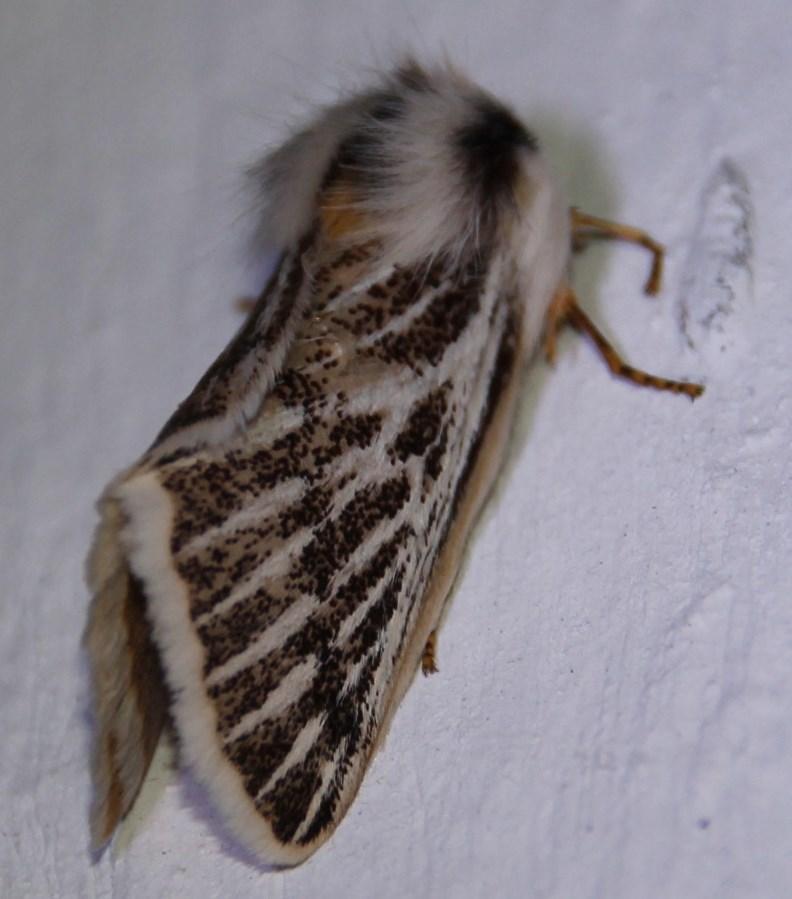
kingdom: Animalia
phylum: Arthropoda
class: Insecta
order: Lepidoptera
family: Eupterotidae
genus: Rhabdosia
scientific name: Rhabdosia vaninia
